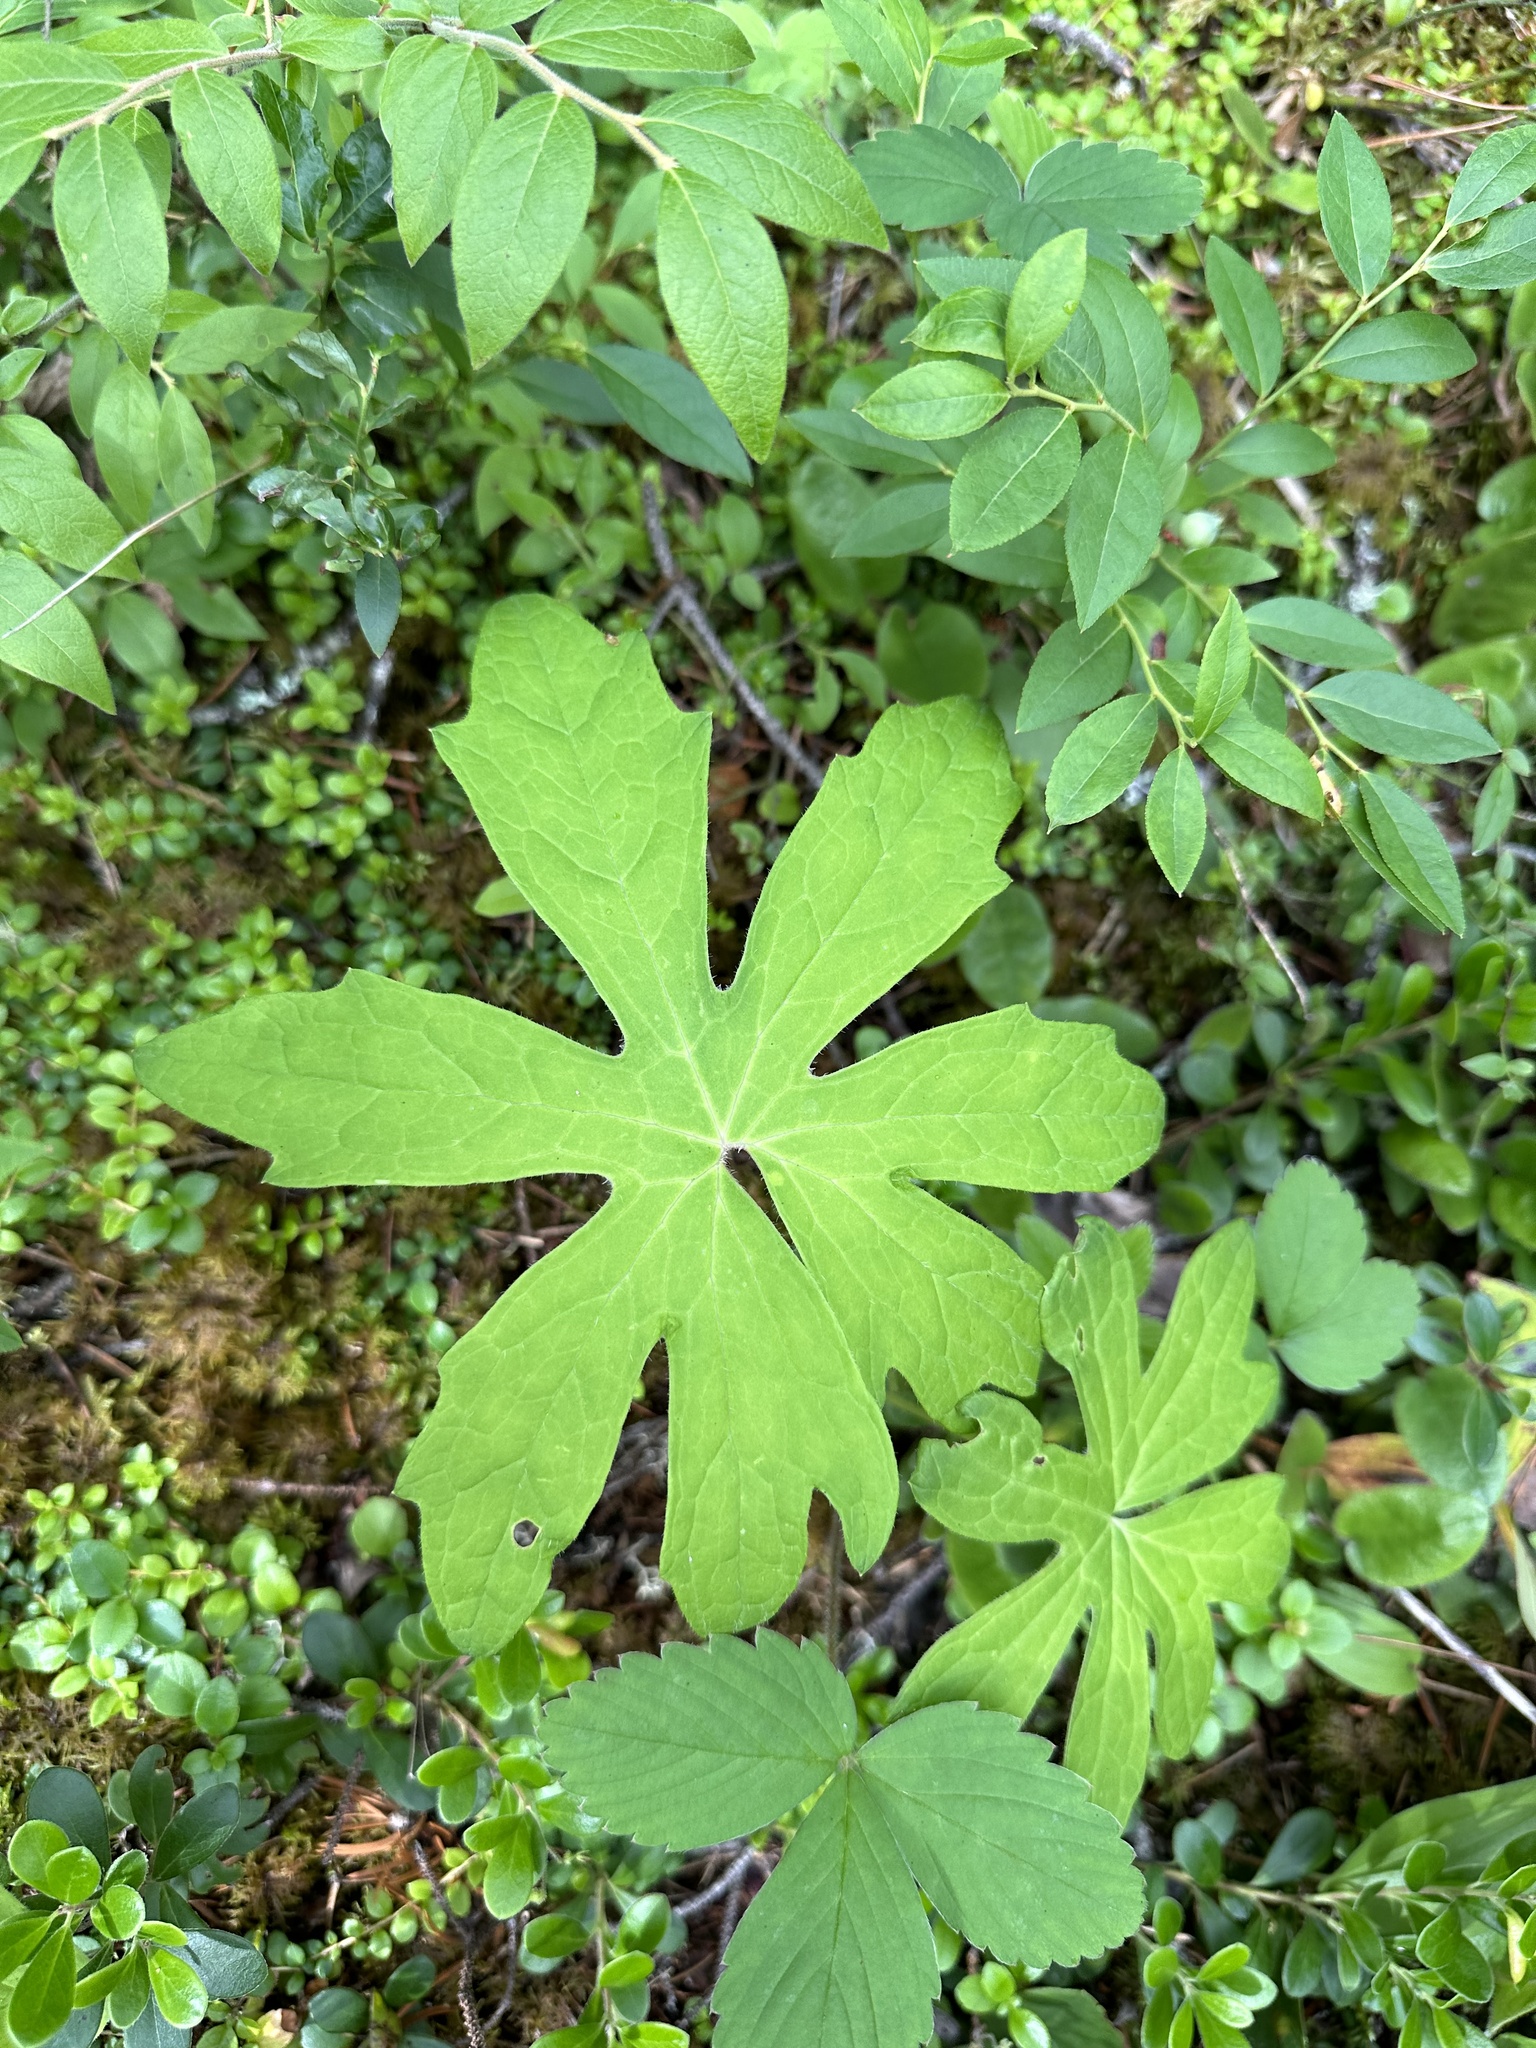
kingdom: Plantae
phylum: Tracheophyta
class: Magnoliopsida
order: Asterales
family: Asteraceae
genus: Petasites
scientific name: Petasites frigidus
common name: Arctic butterbur
